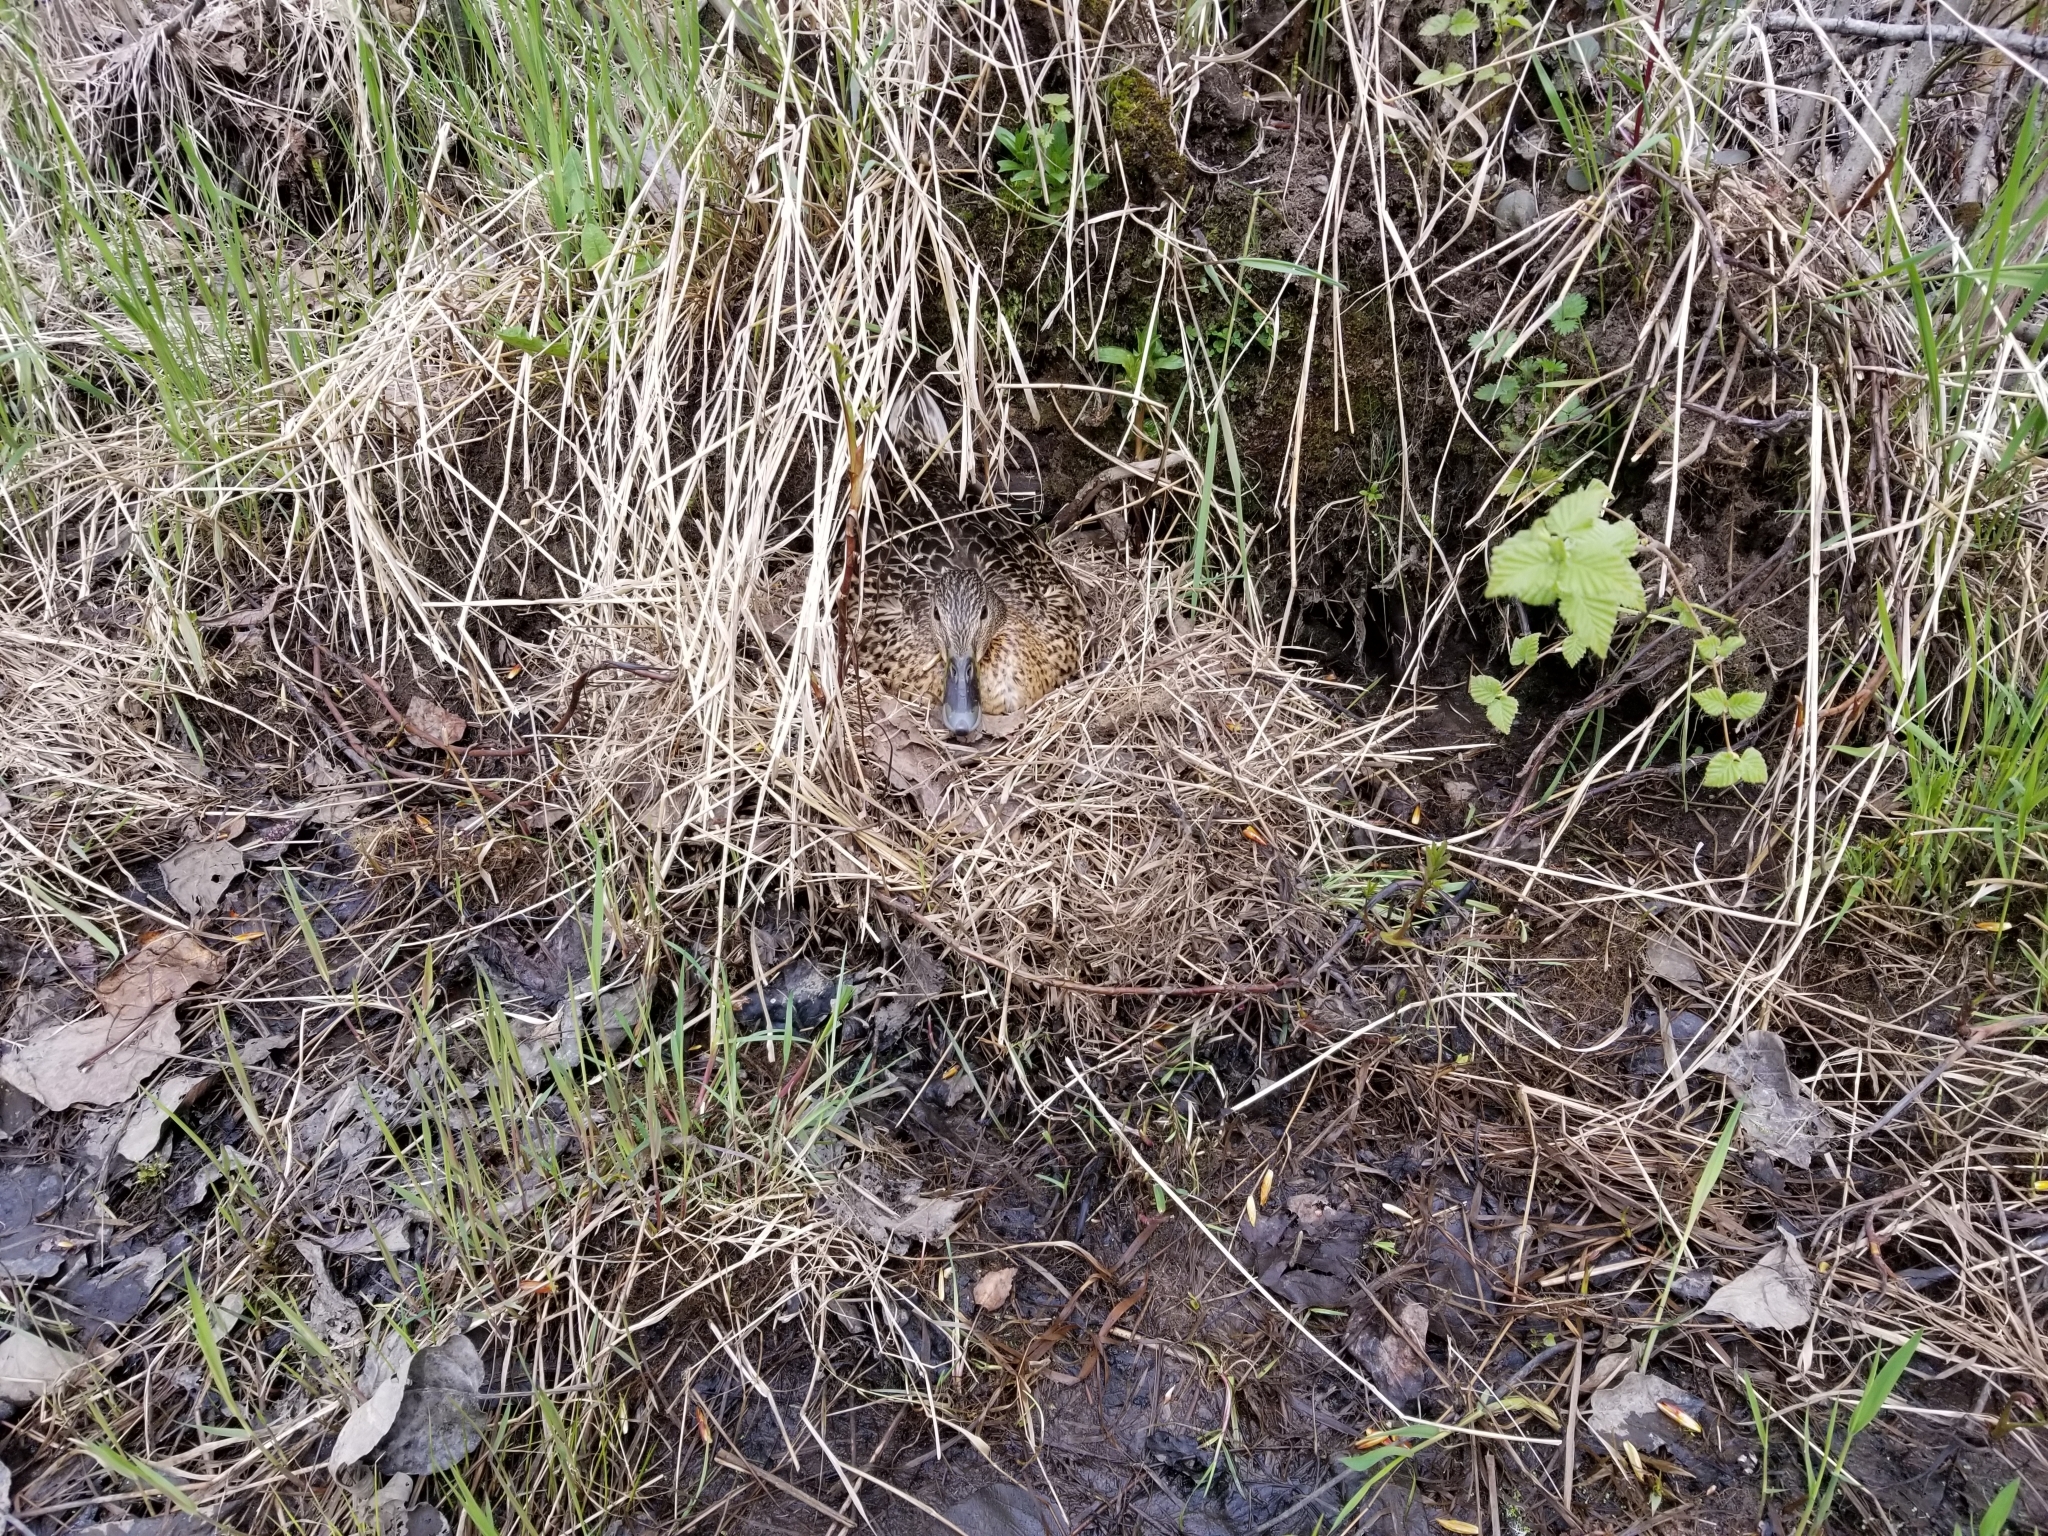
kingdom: Animalia
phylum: Chordata
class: Aves
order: Anseriformes
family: Anatidae
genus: Anas
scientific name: Anas platyrhynchos
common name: Mallard
